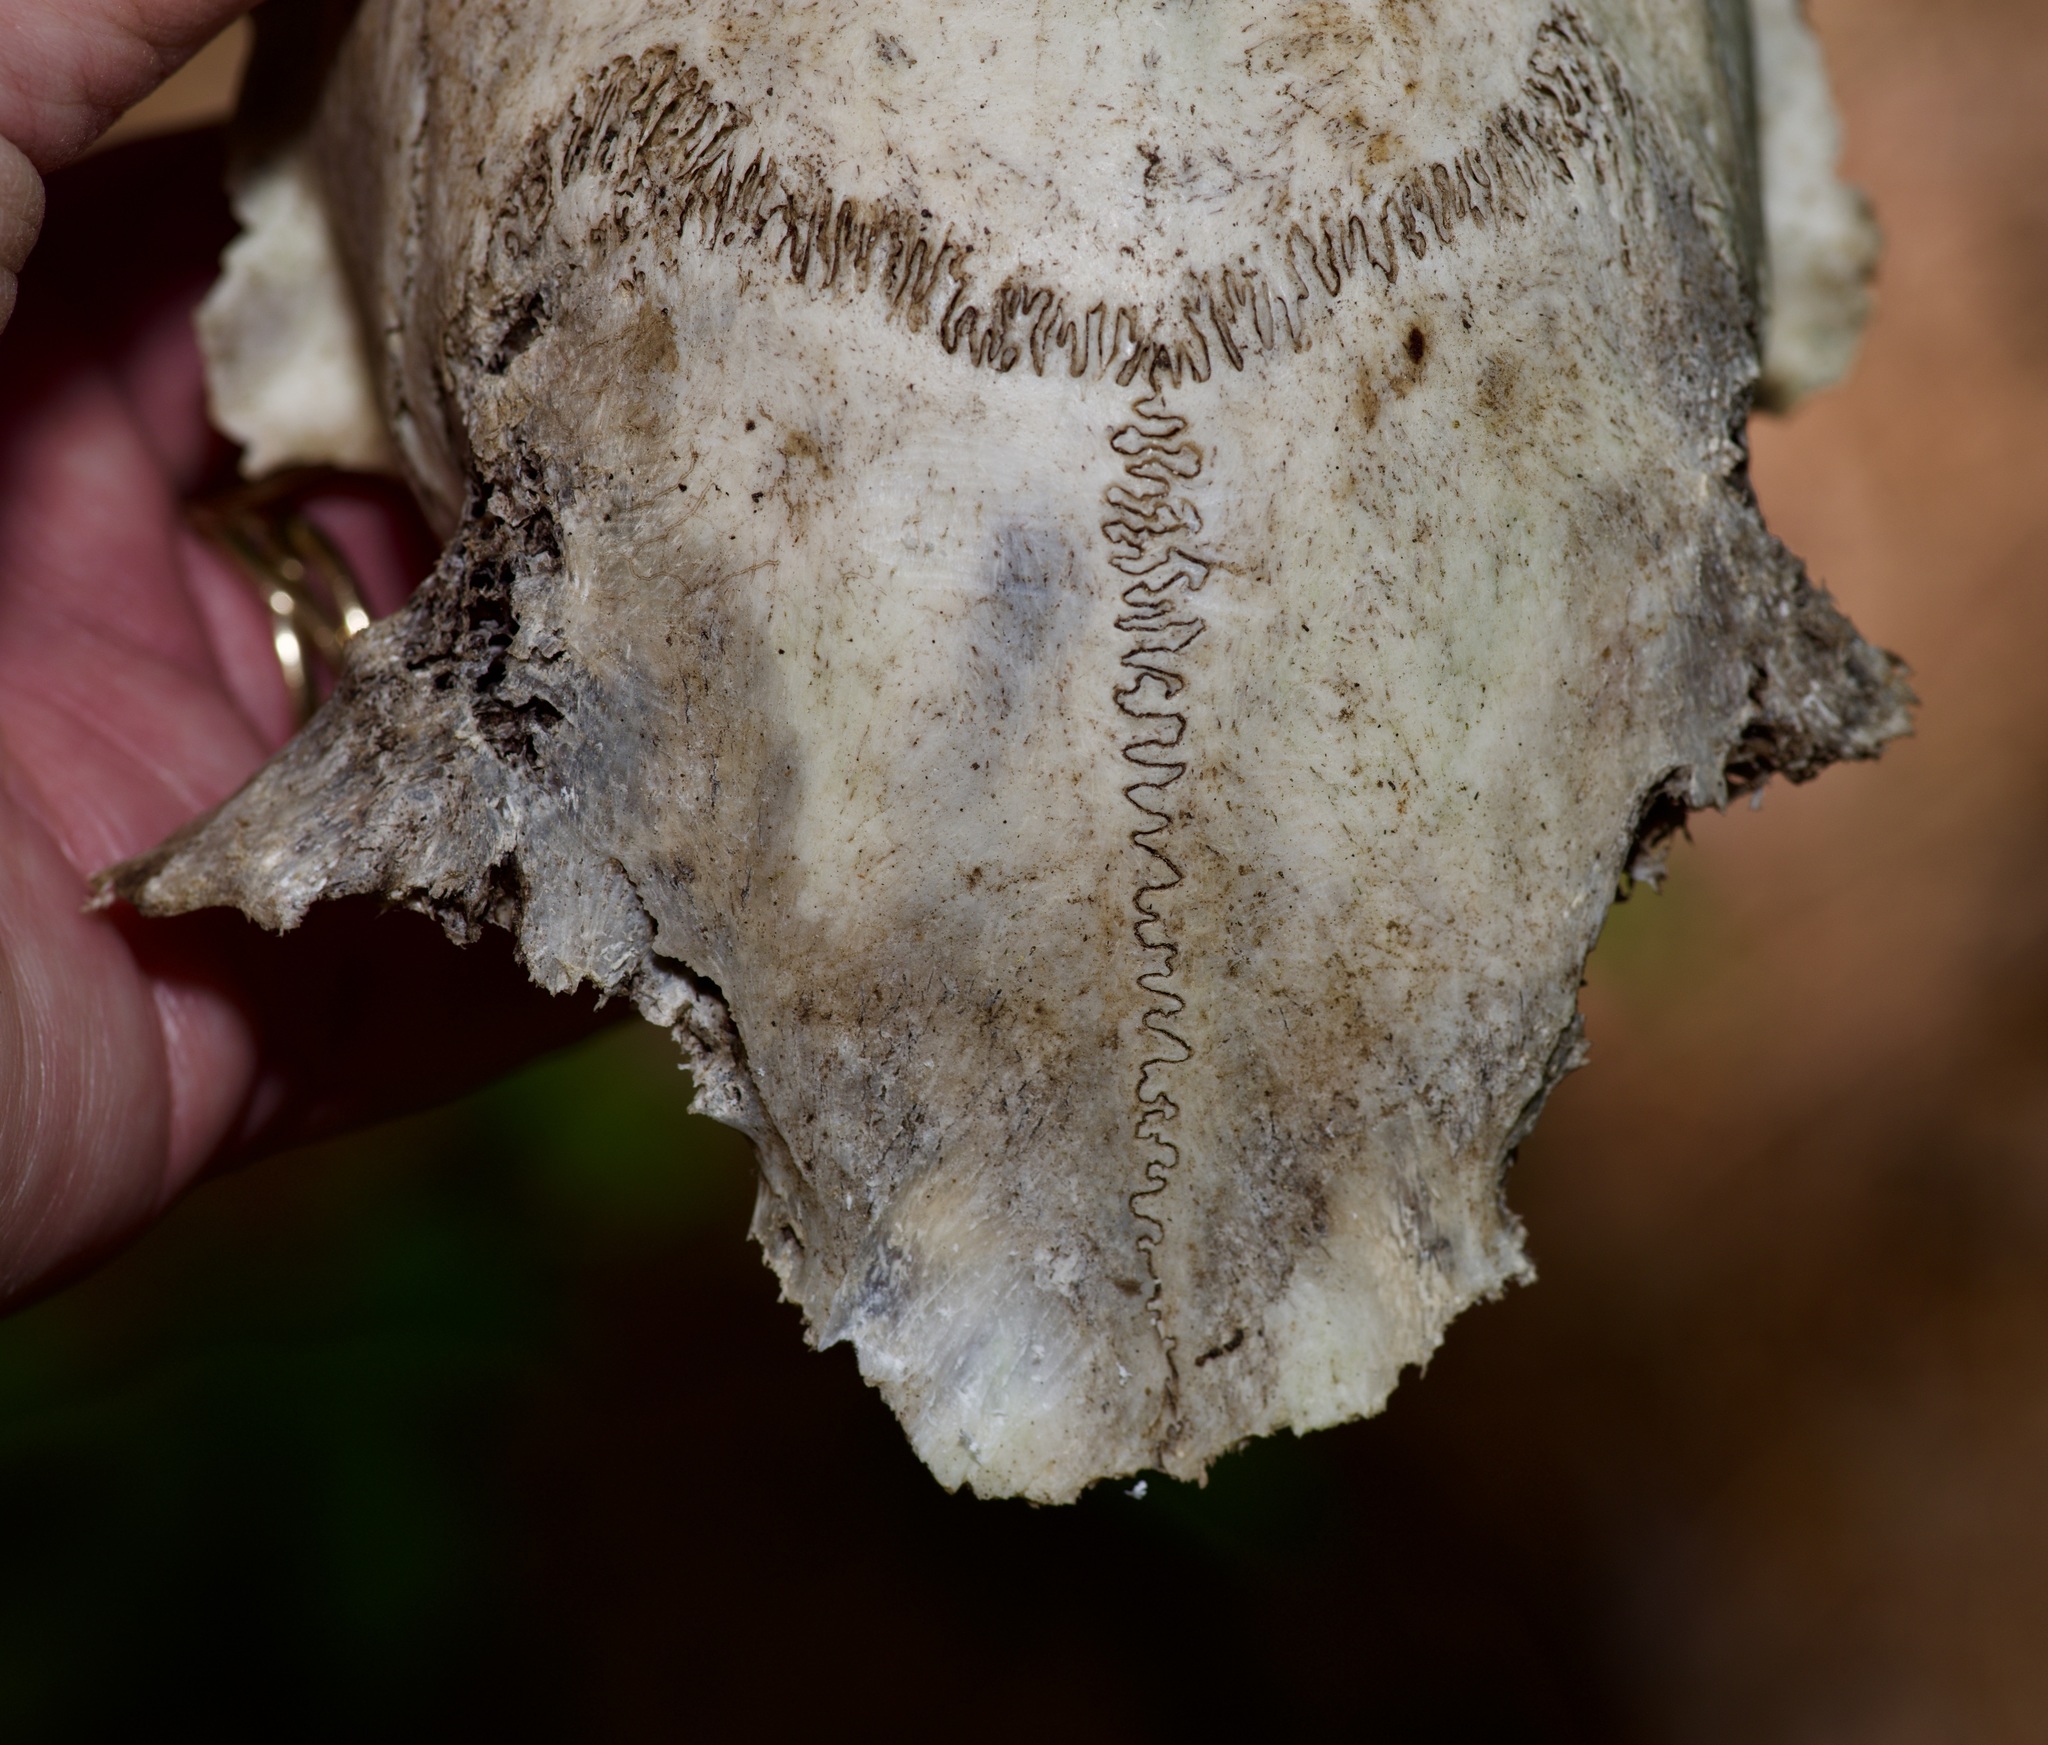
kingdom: Animalia
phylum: Chordata
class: Mammalia
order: Artiodactyla
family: Cervidae
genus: Odocoileus
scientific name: Odocoileus virginianus
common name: White-tailed deer
